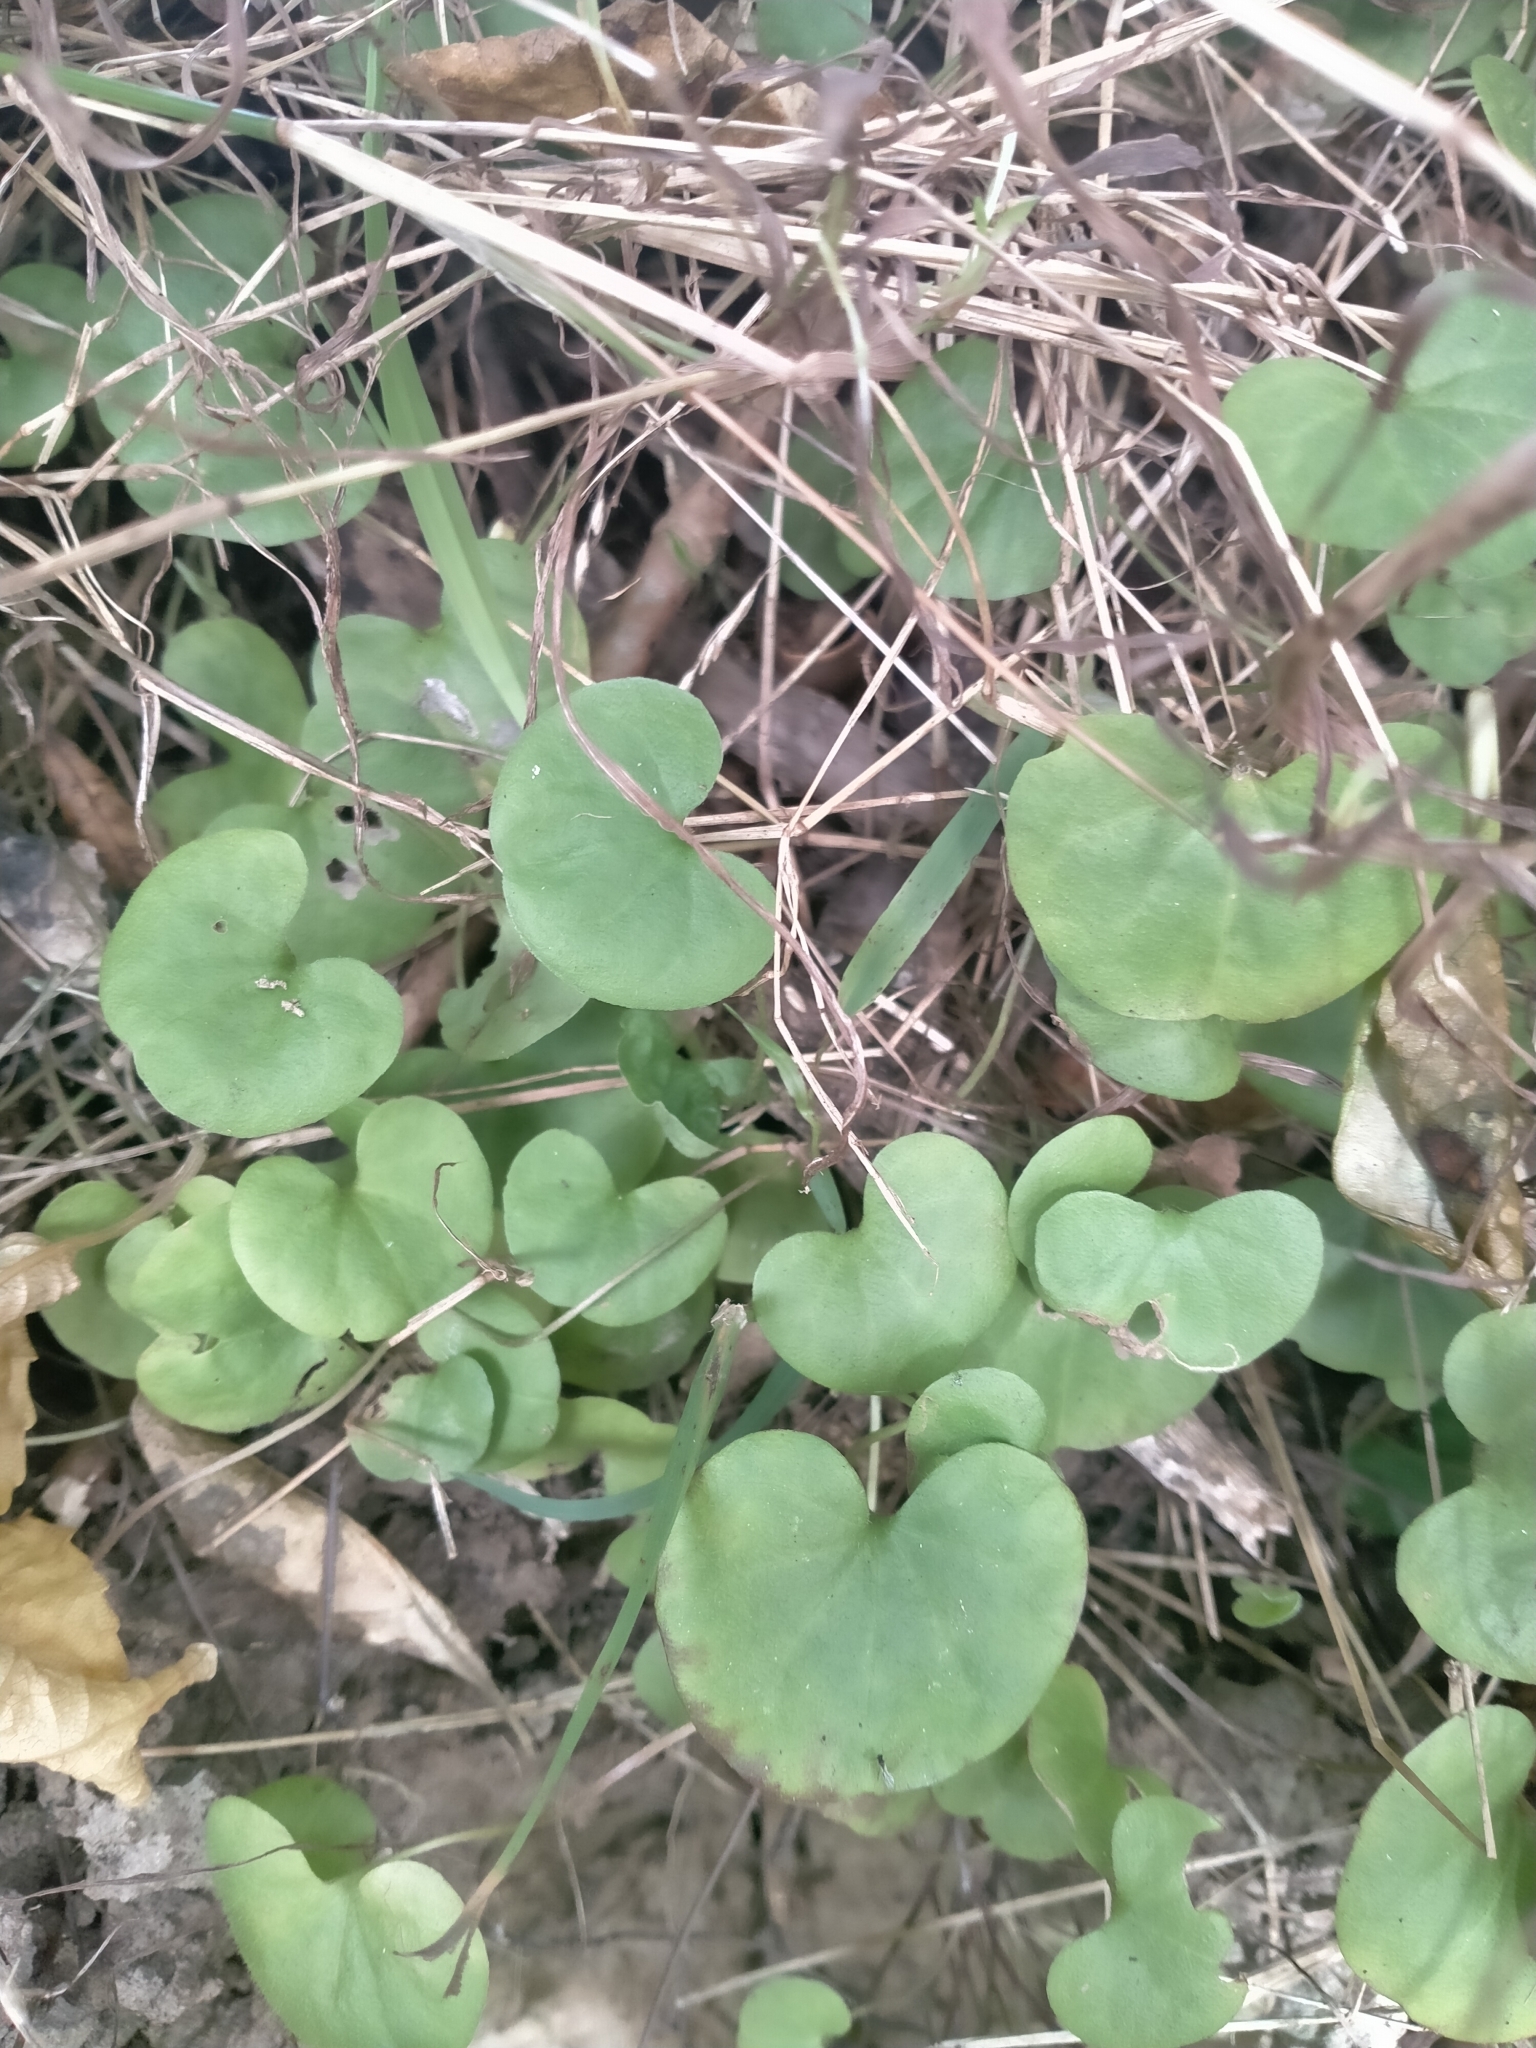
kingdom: Plantae
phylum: Tracheophyta
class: Magnoliopsida
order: Solanales
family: Convolvulaceae
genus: Dichondra
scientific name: Dichondra repens
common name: Kidneyweed
